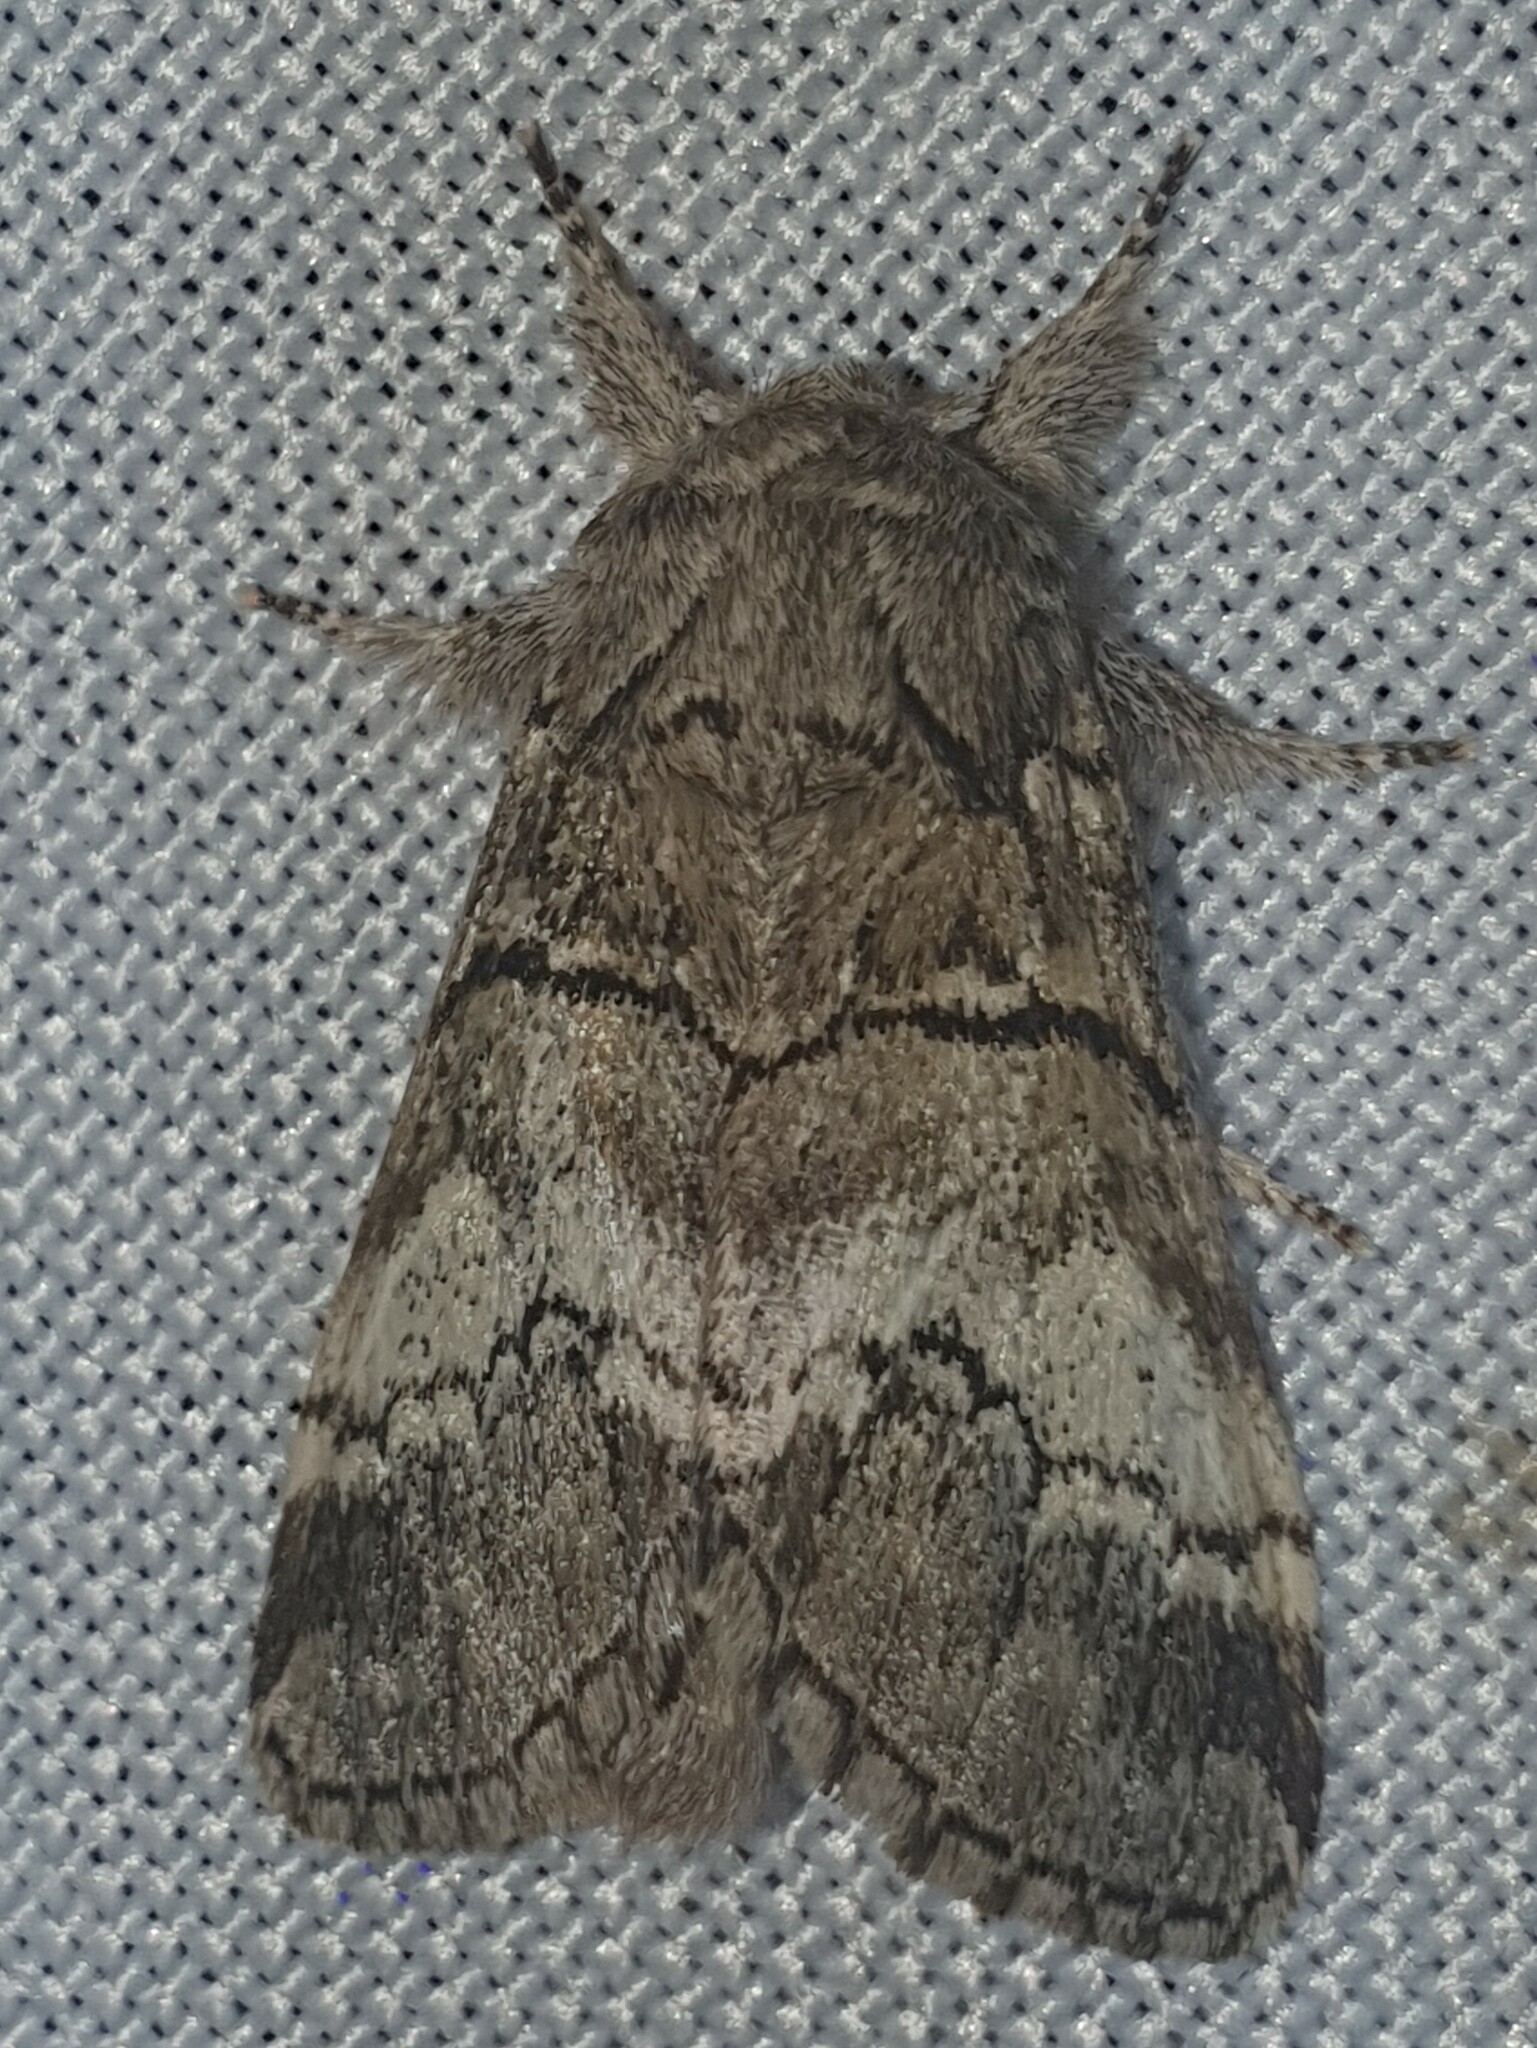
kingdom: Animalia
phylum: Arthropoda
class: Insecta
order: Lepidoptera
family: Notodontidae
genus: Drymonia
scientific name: Drymonia querna
